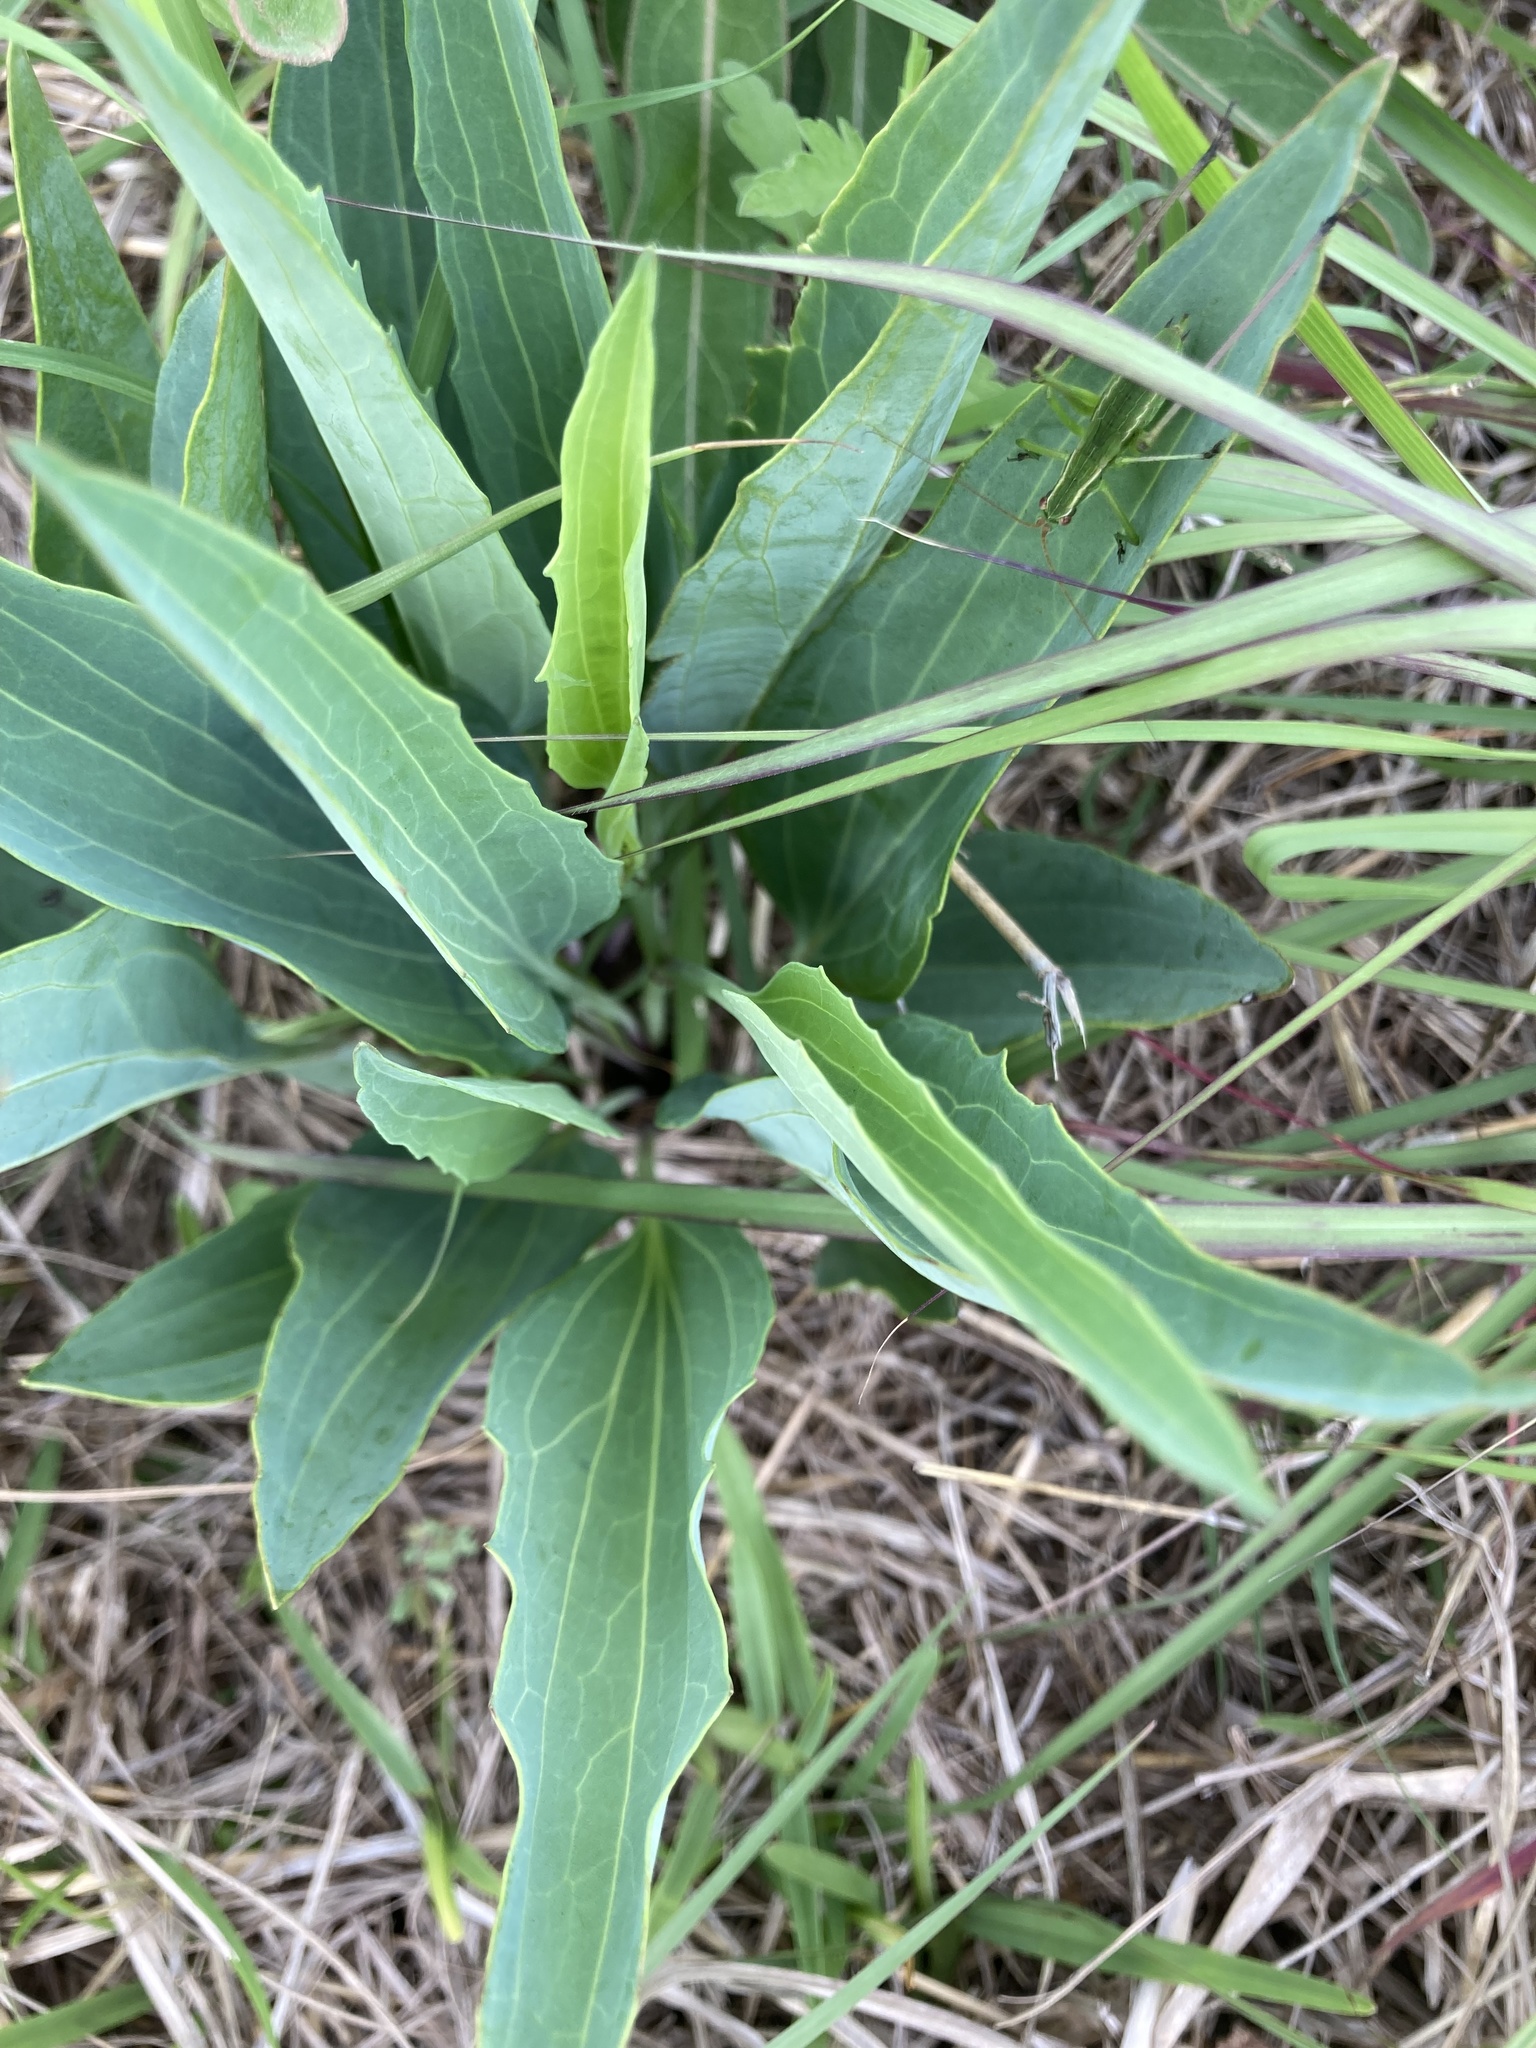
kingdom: Plantae
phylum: Tracheophyta
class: Magnoliopsida
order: Asterales
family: Asteraceae
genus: Arnoglossum
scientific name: Arnoglossum ovatum
